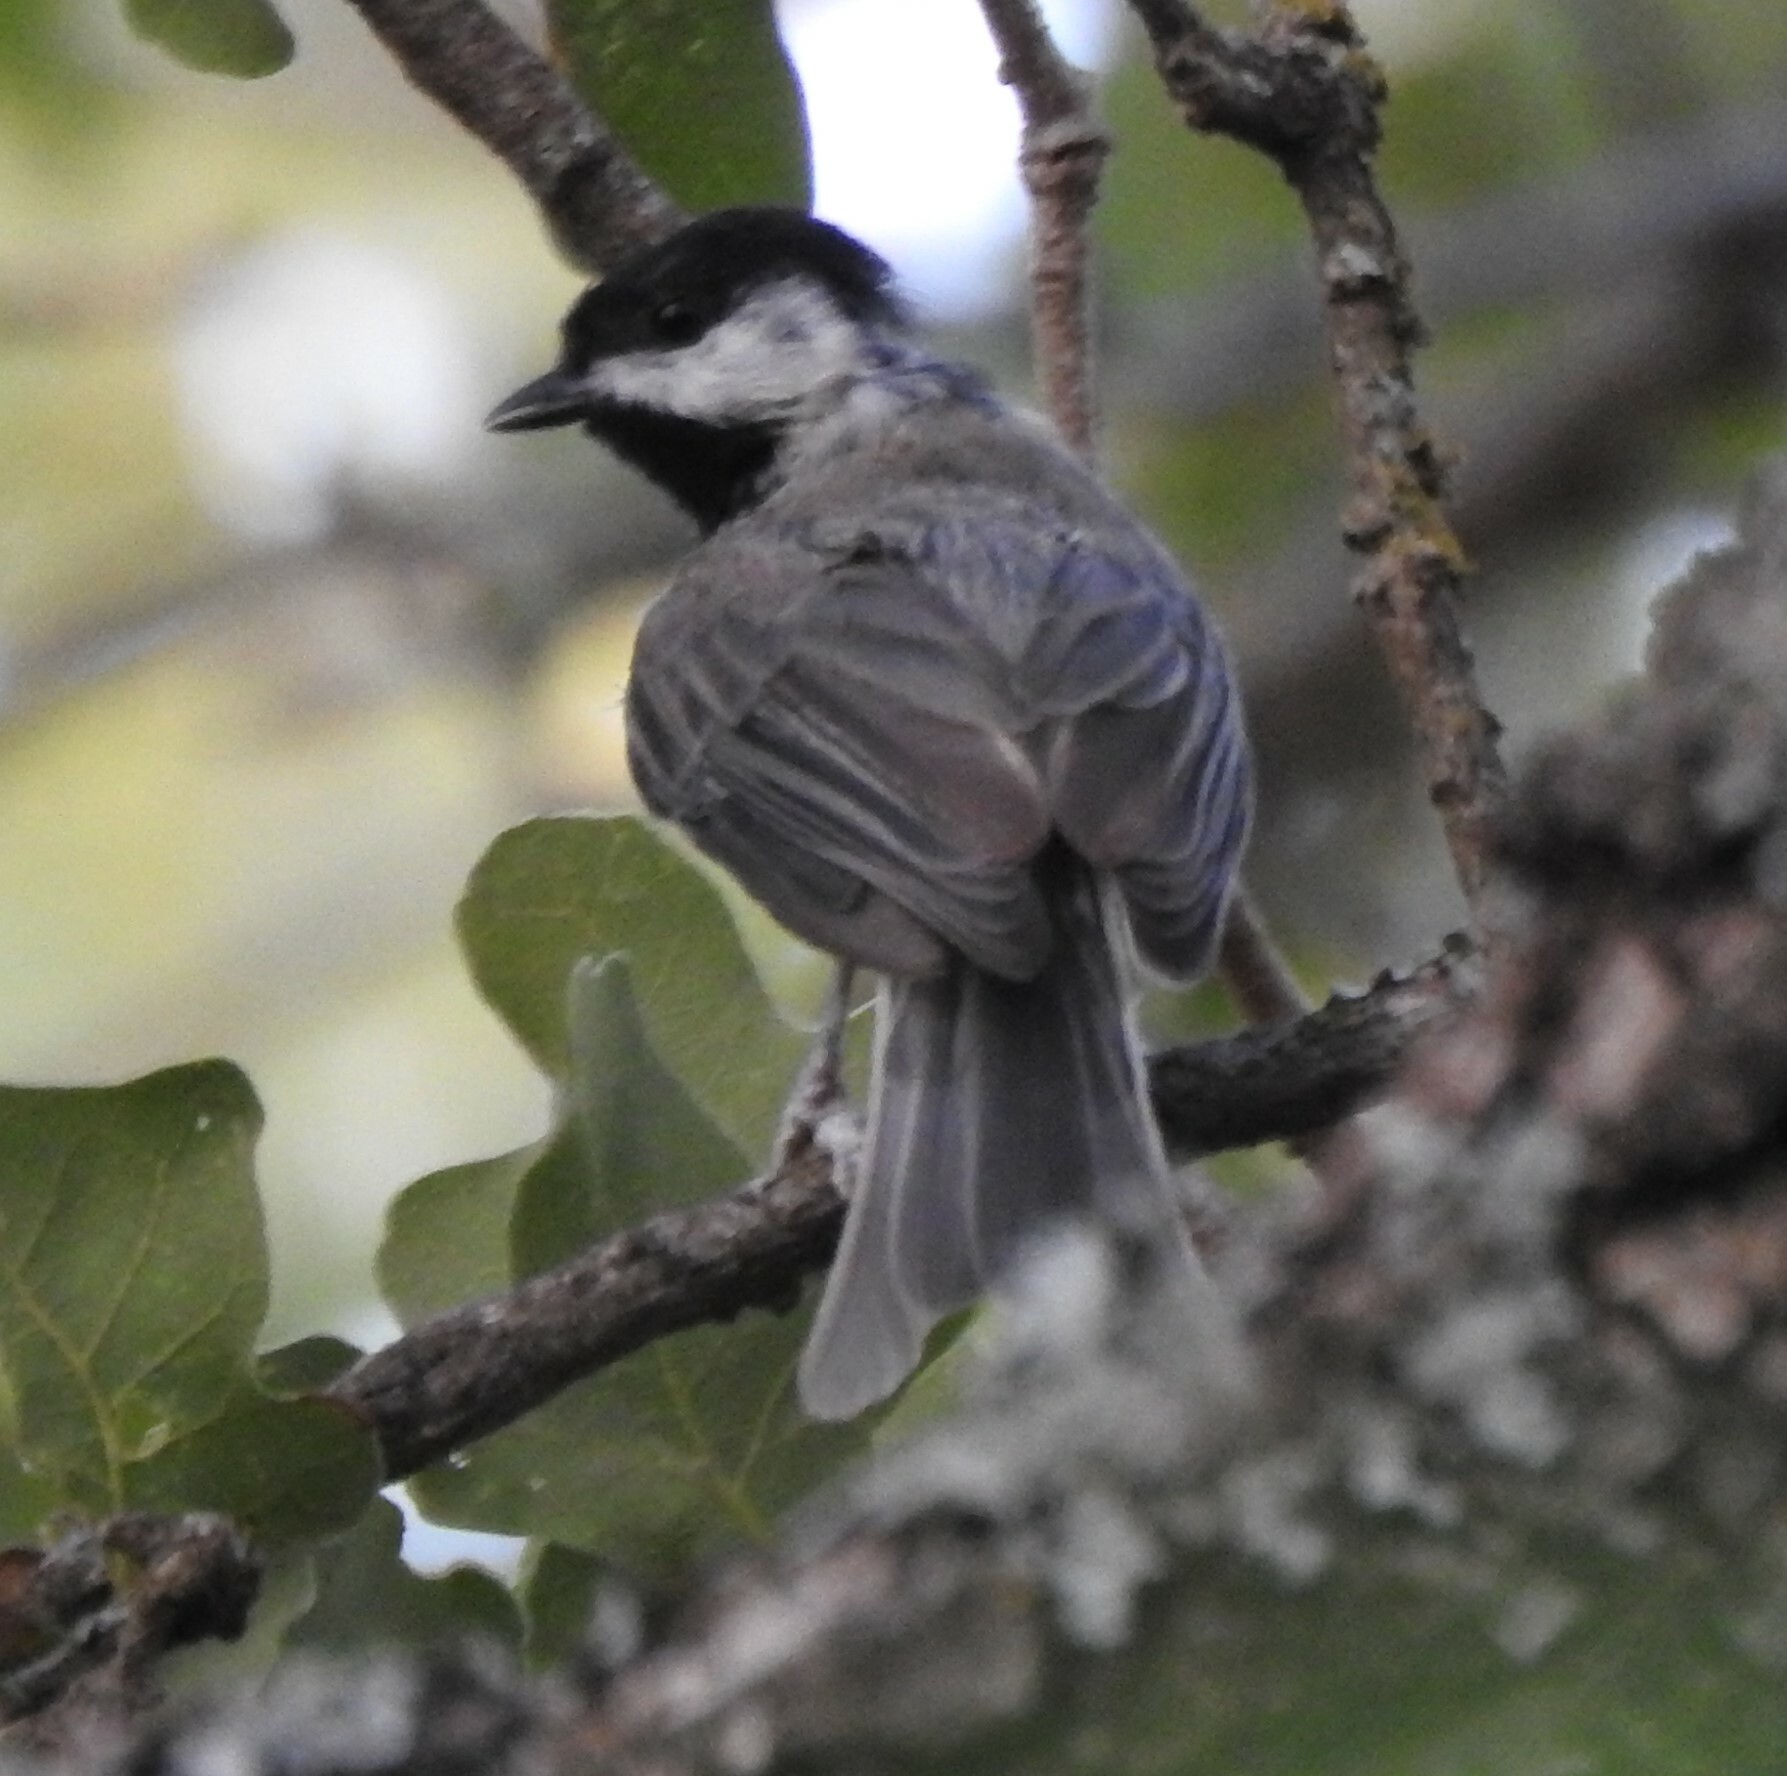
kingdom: Animalia
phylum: Chordata
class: Aves
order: Passeriformes
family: Paridae
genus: Poecile
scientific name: Poecile carolinensis
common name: Carolina chickadee
